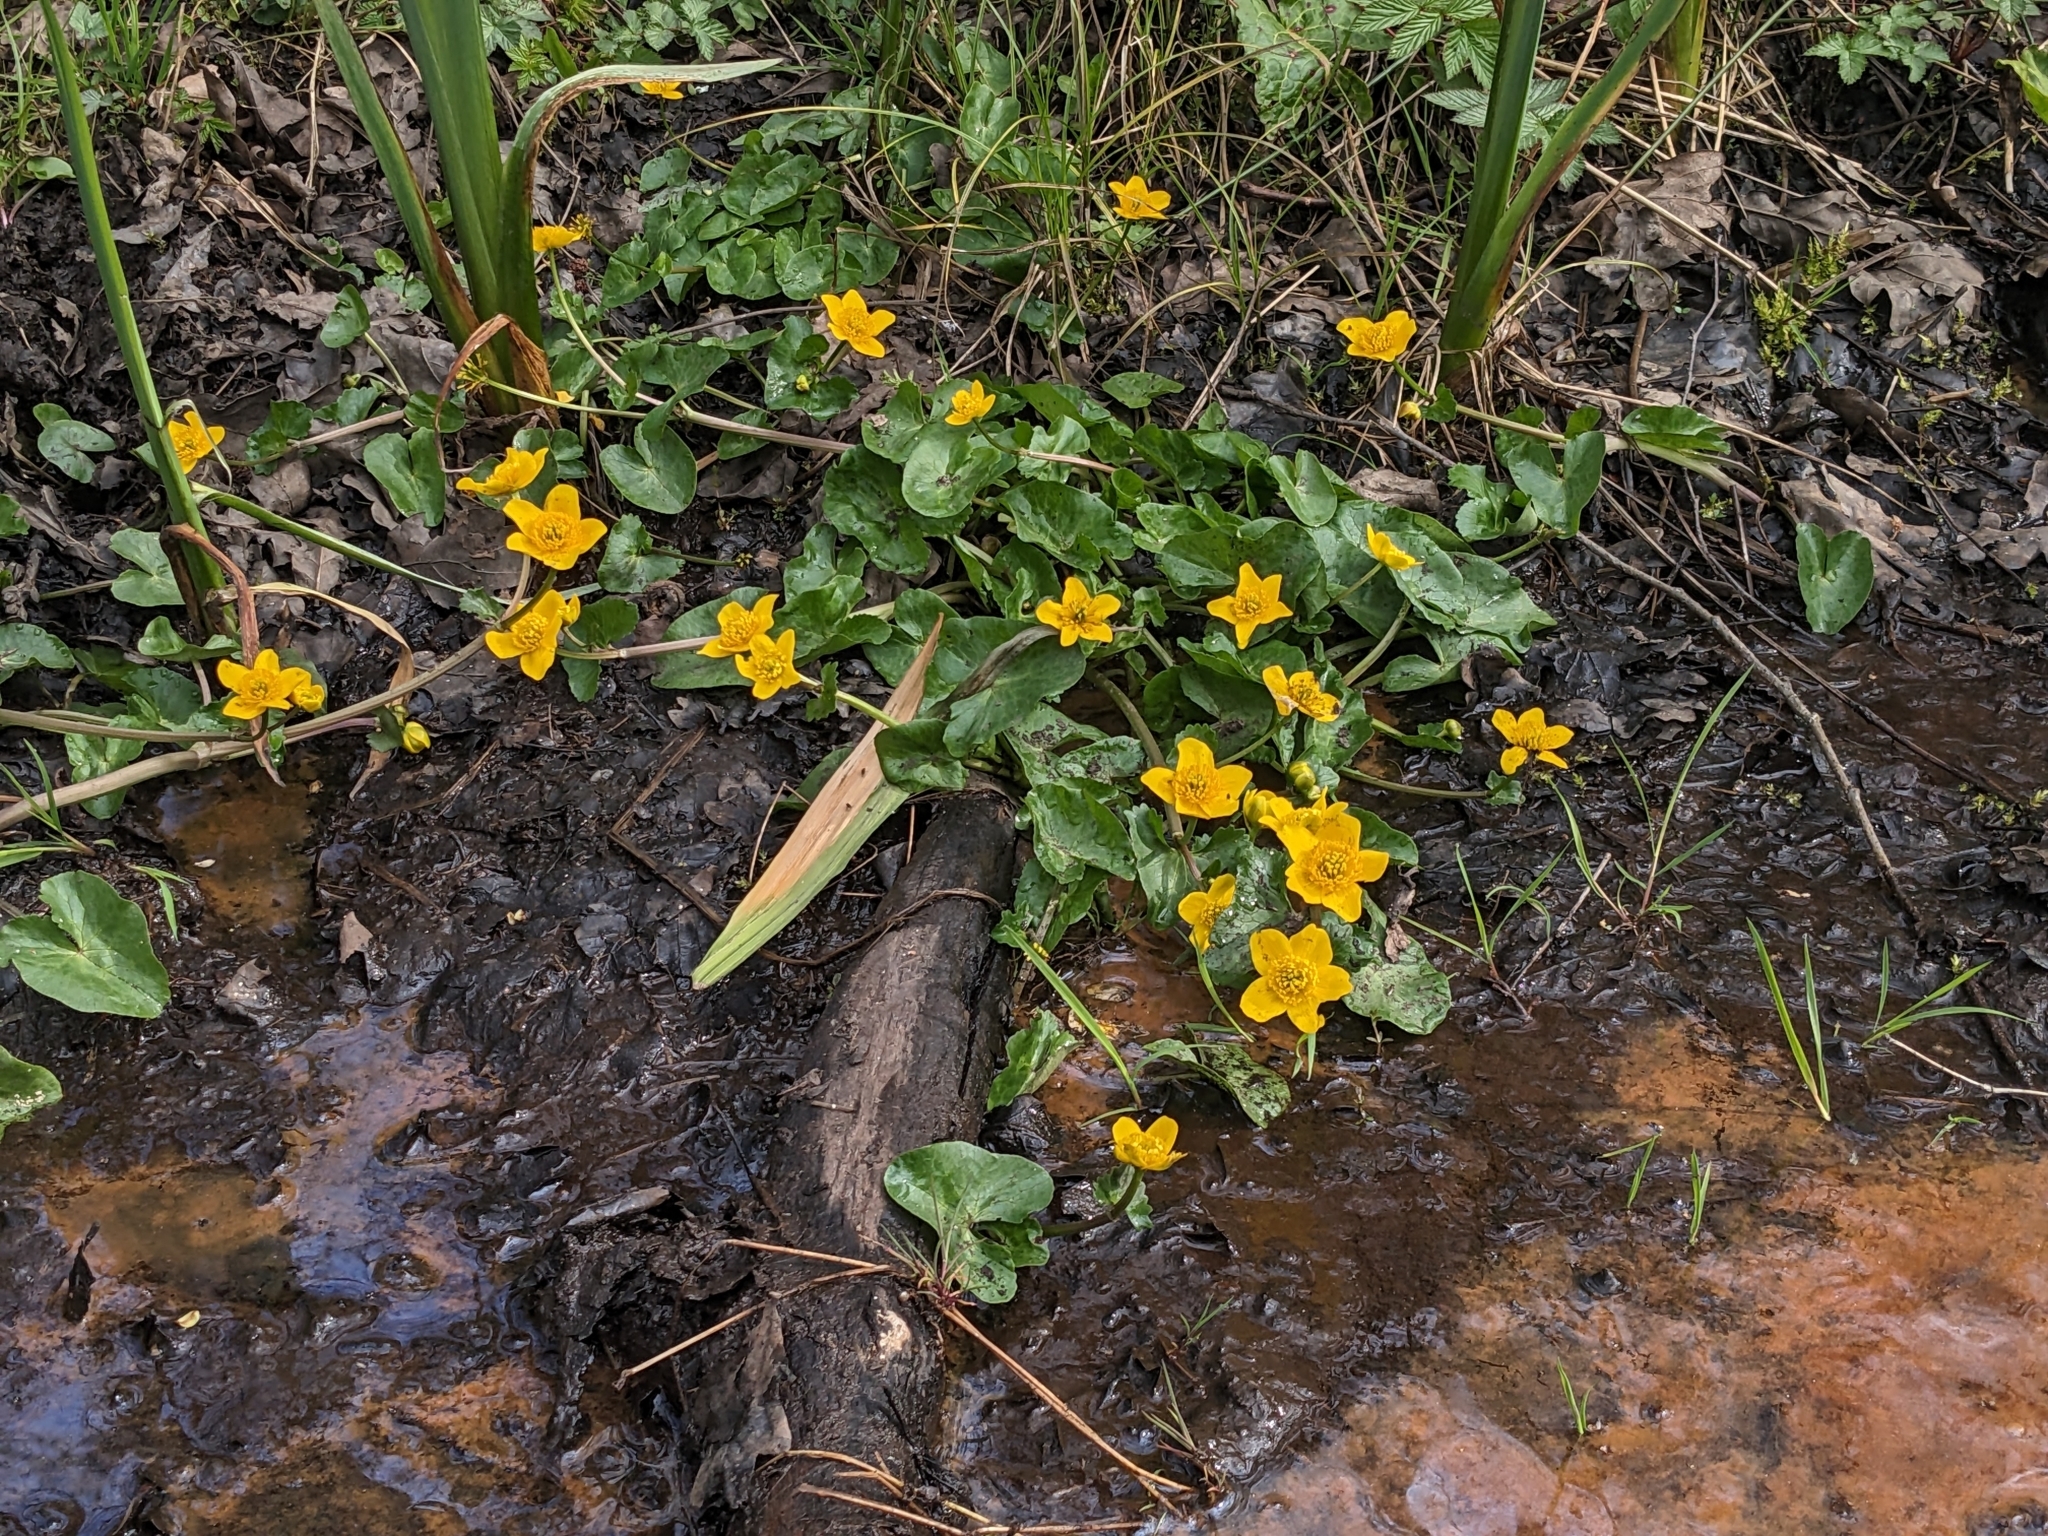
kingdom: Plantae
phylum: Tracheophyta
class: Magnoliopsida
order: Ranunculales
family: Ranunculaceae
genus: Caltha
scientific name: Caltha palustris
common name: Marsh marigold
